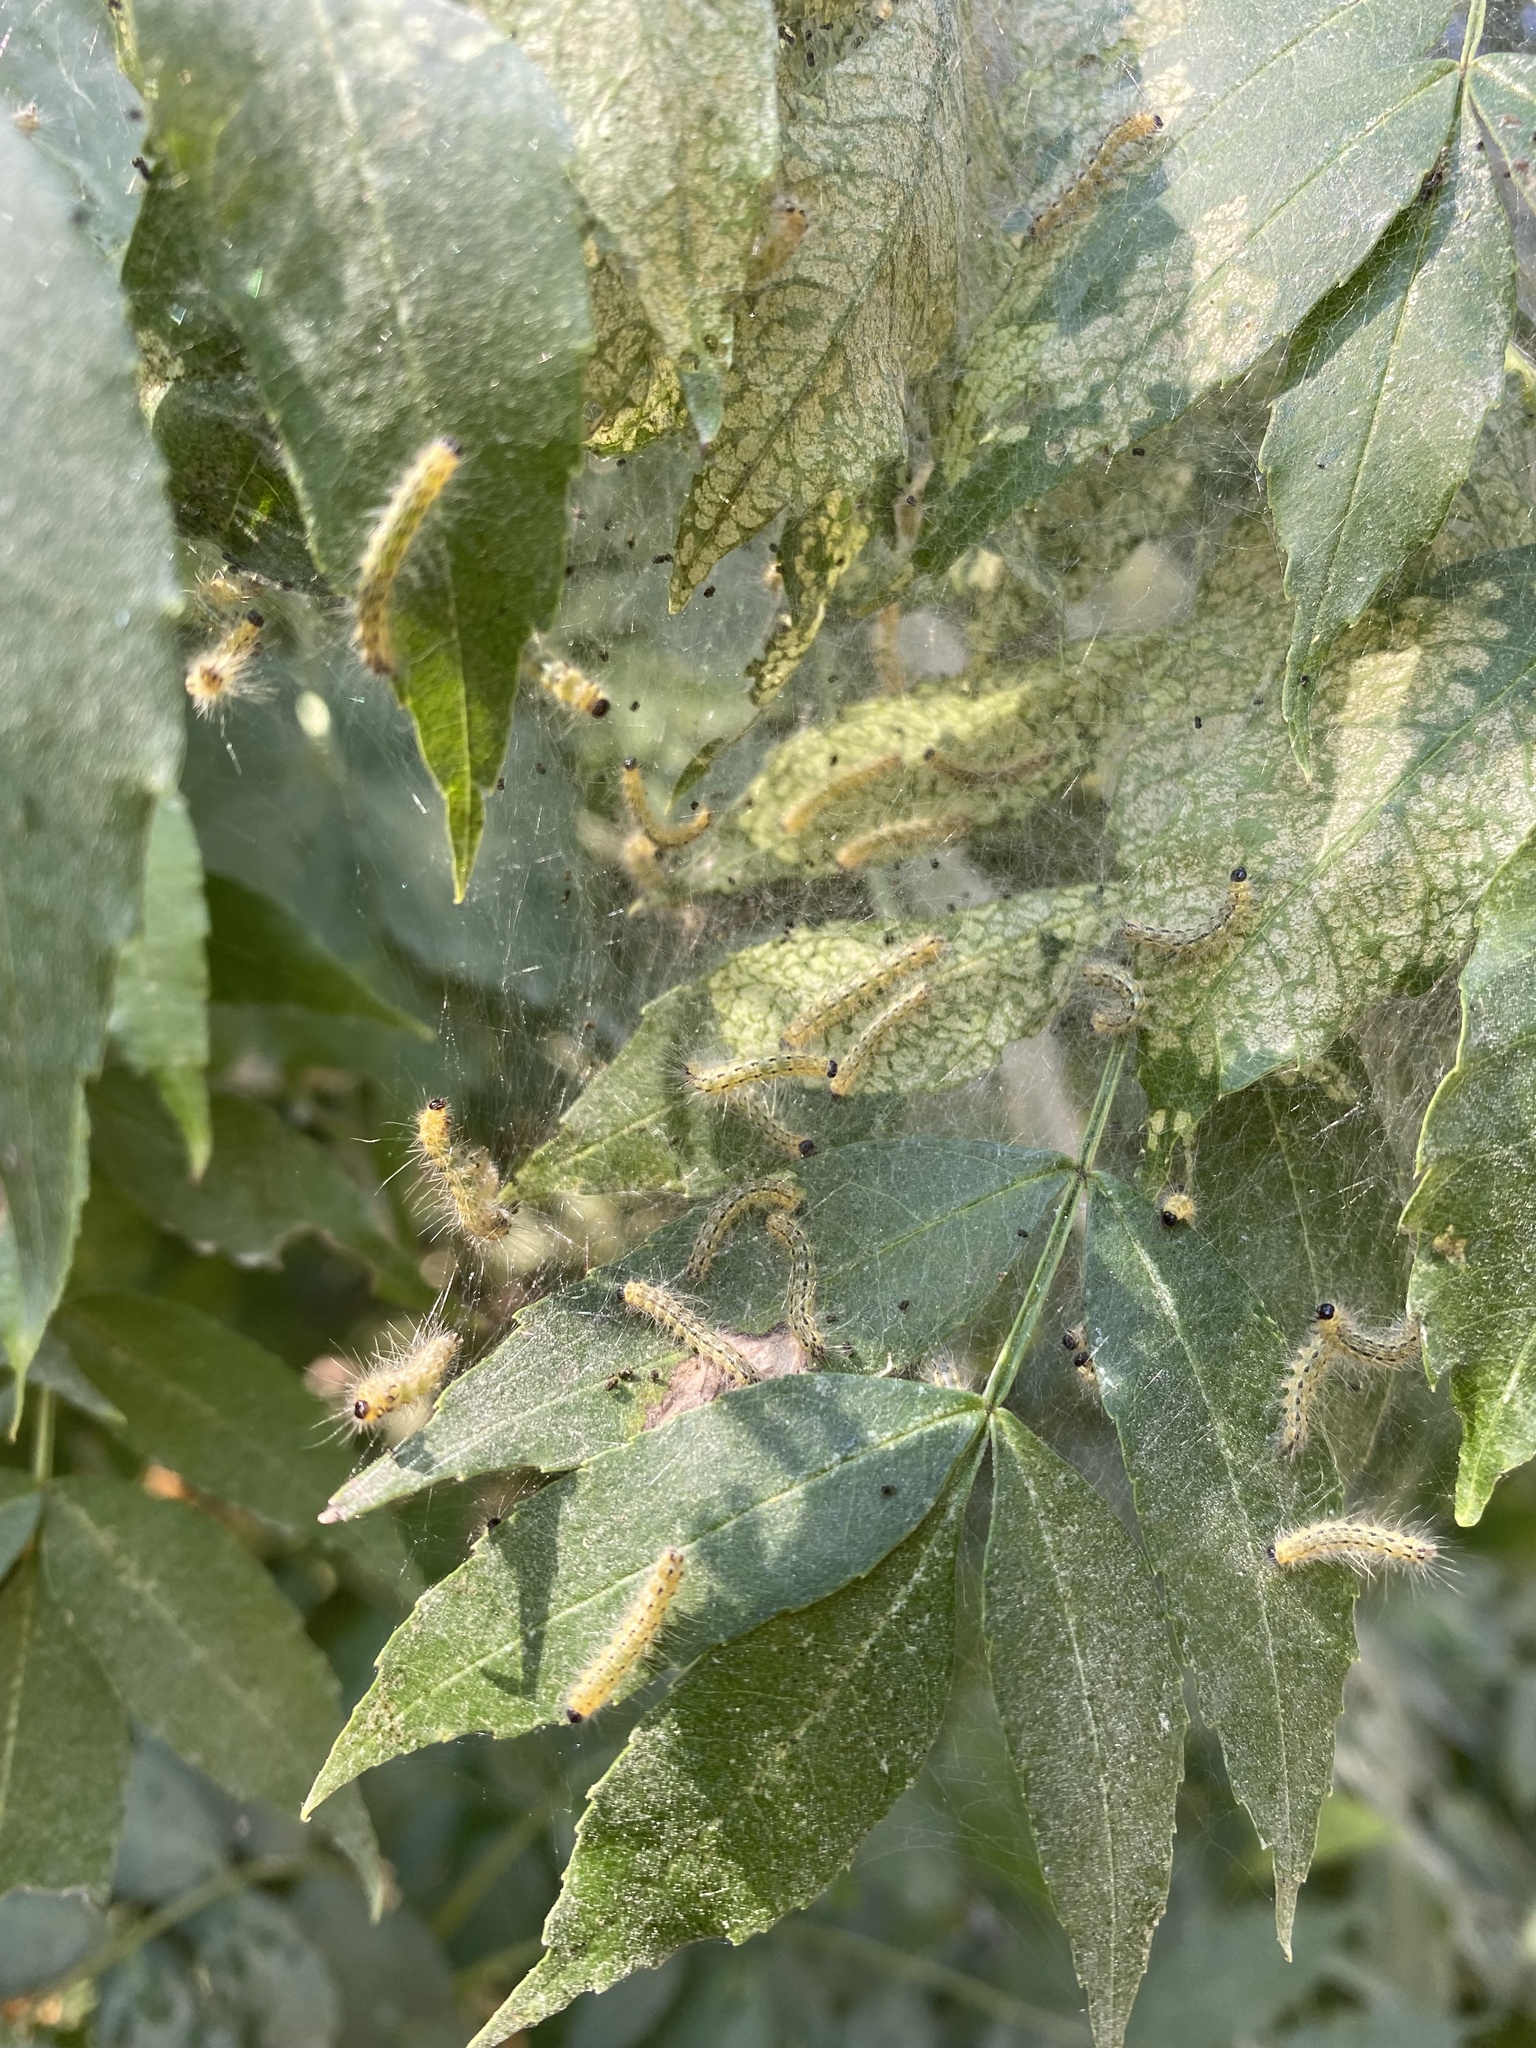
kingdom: Animalia
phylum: Arthropoda
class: Insecta
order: Lepidoptera
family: Erebidae
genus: Hyphantria
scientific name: Hyphantria cunea
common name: American white moth
